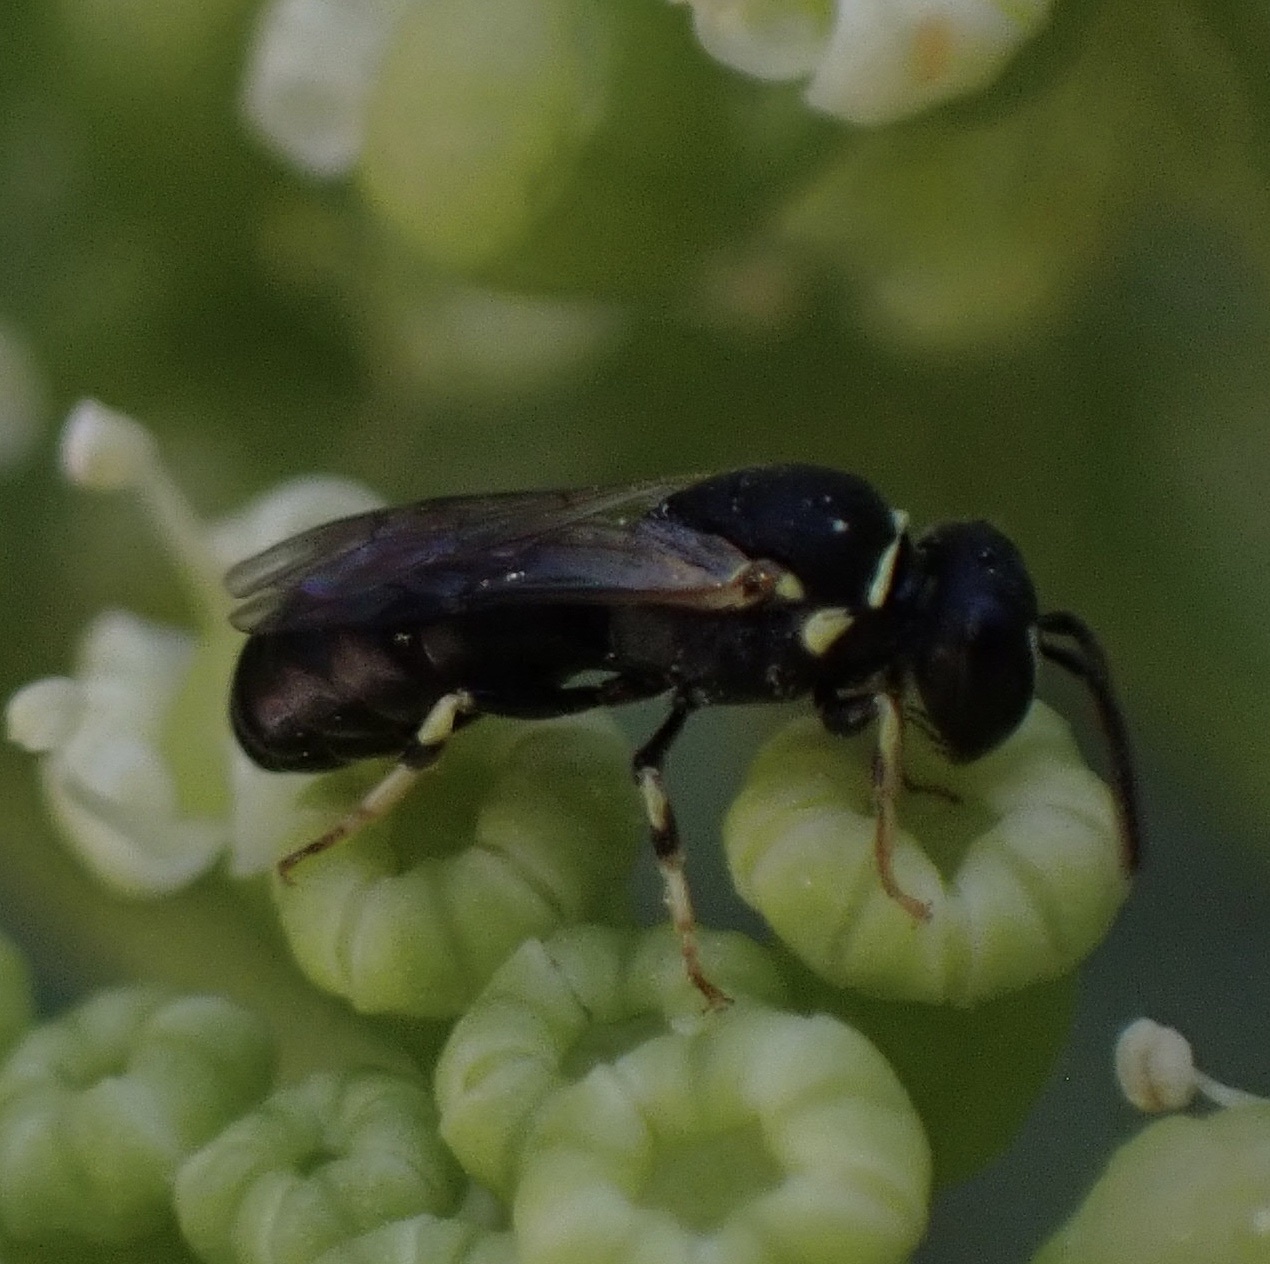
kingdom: Animalia
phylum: Arthropoda
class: Insecta
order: Hymenoptera
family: Colletidae
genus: Hylaeus
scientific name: Hylaeus clypearis
